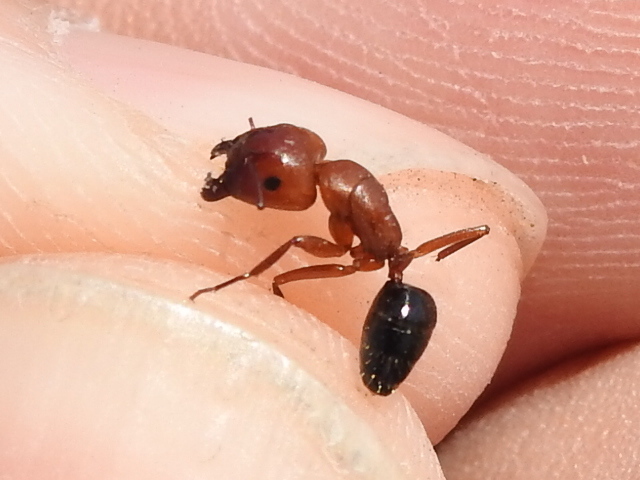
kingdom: Animalia
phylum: Arthropoda
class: Insecta
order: Hymenoptera
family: Formicidae
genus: Camponotus
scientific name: Camponotus decipiens
